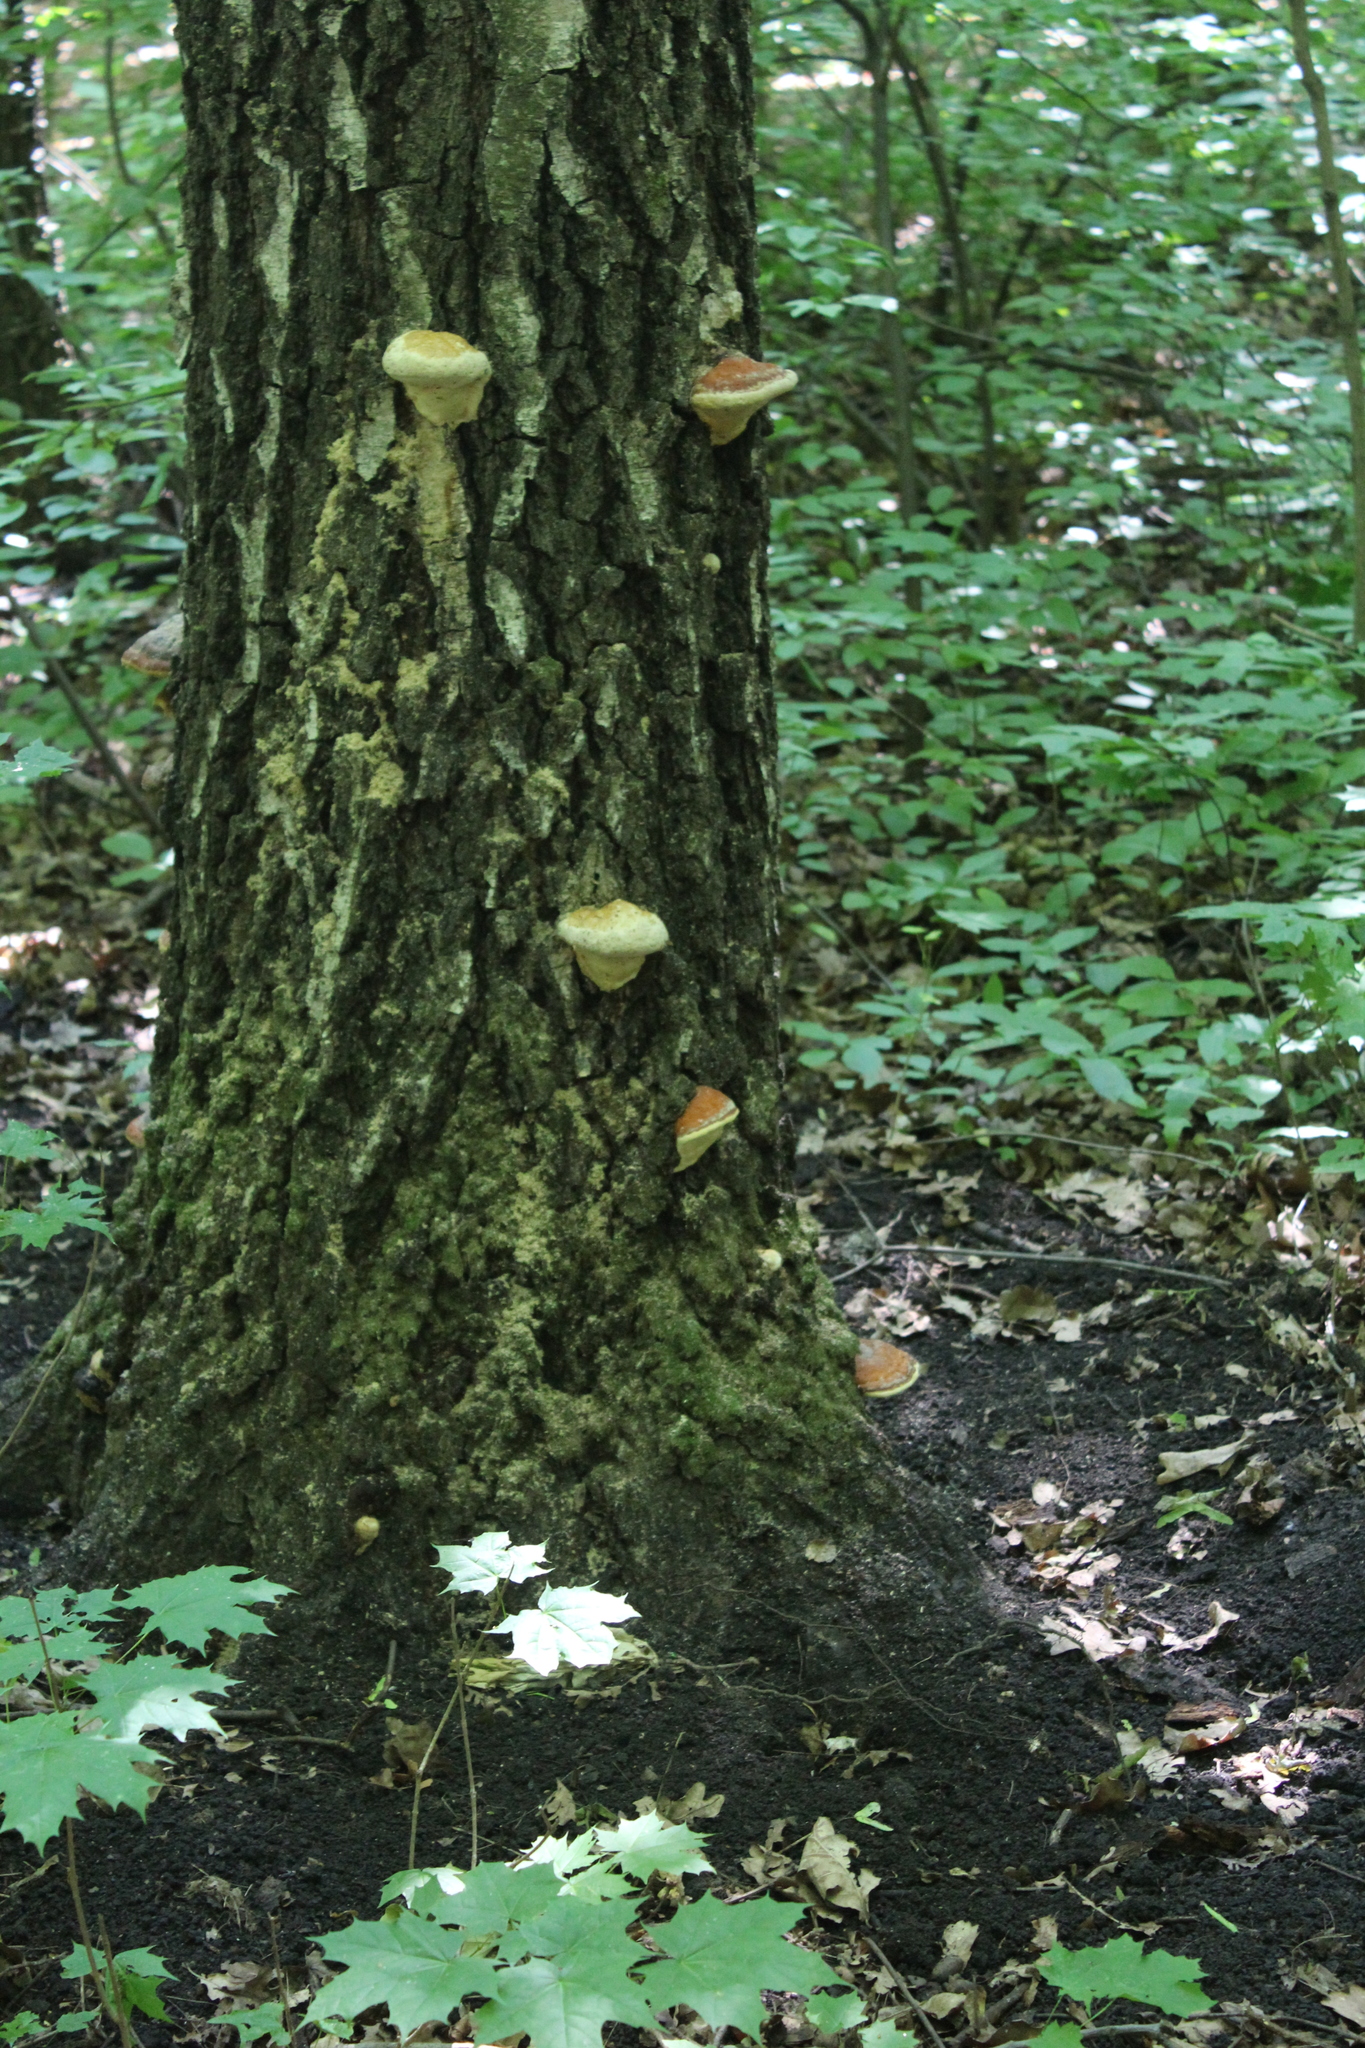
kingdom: Fungi
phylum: Basidiomycota
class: Agaricomycetes
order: Polyporales
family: Fomitopsidaceae
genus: Fomitopsis
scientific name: Fomitopsis pinicola
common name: Red-belted bracket
